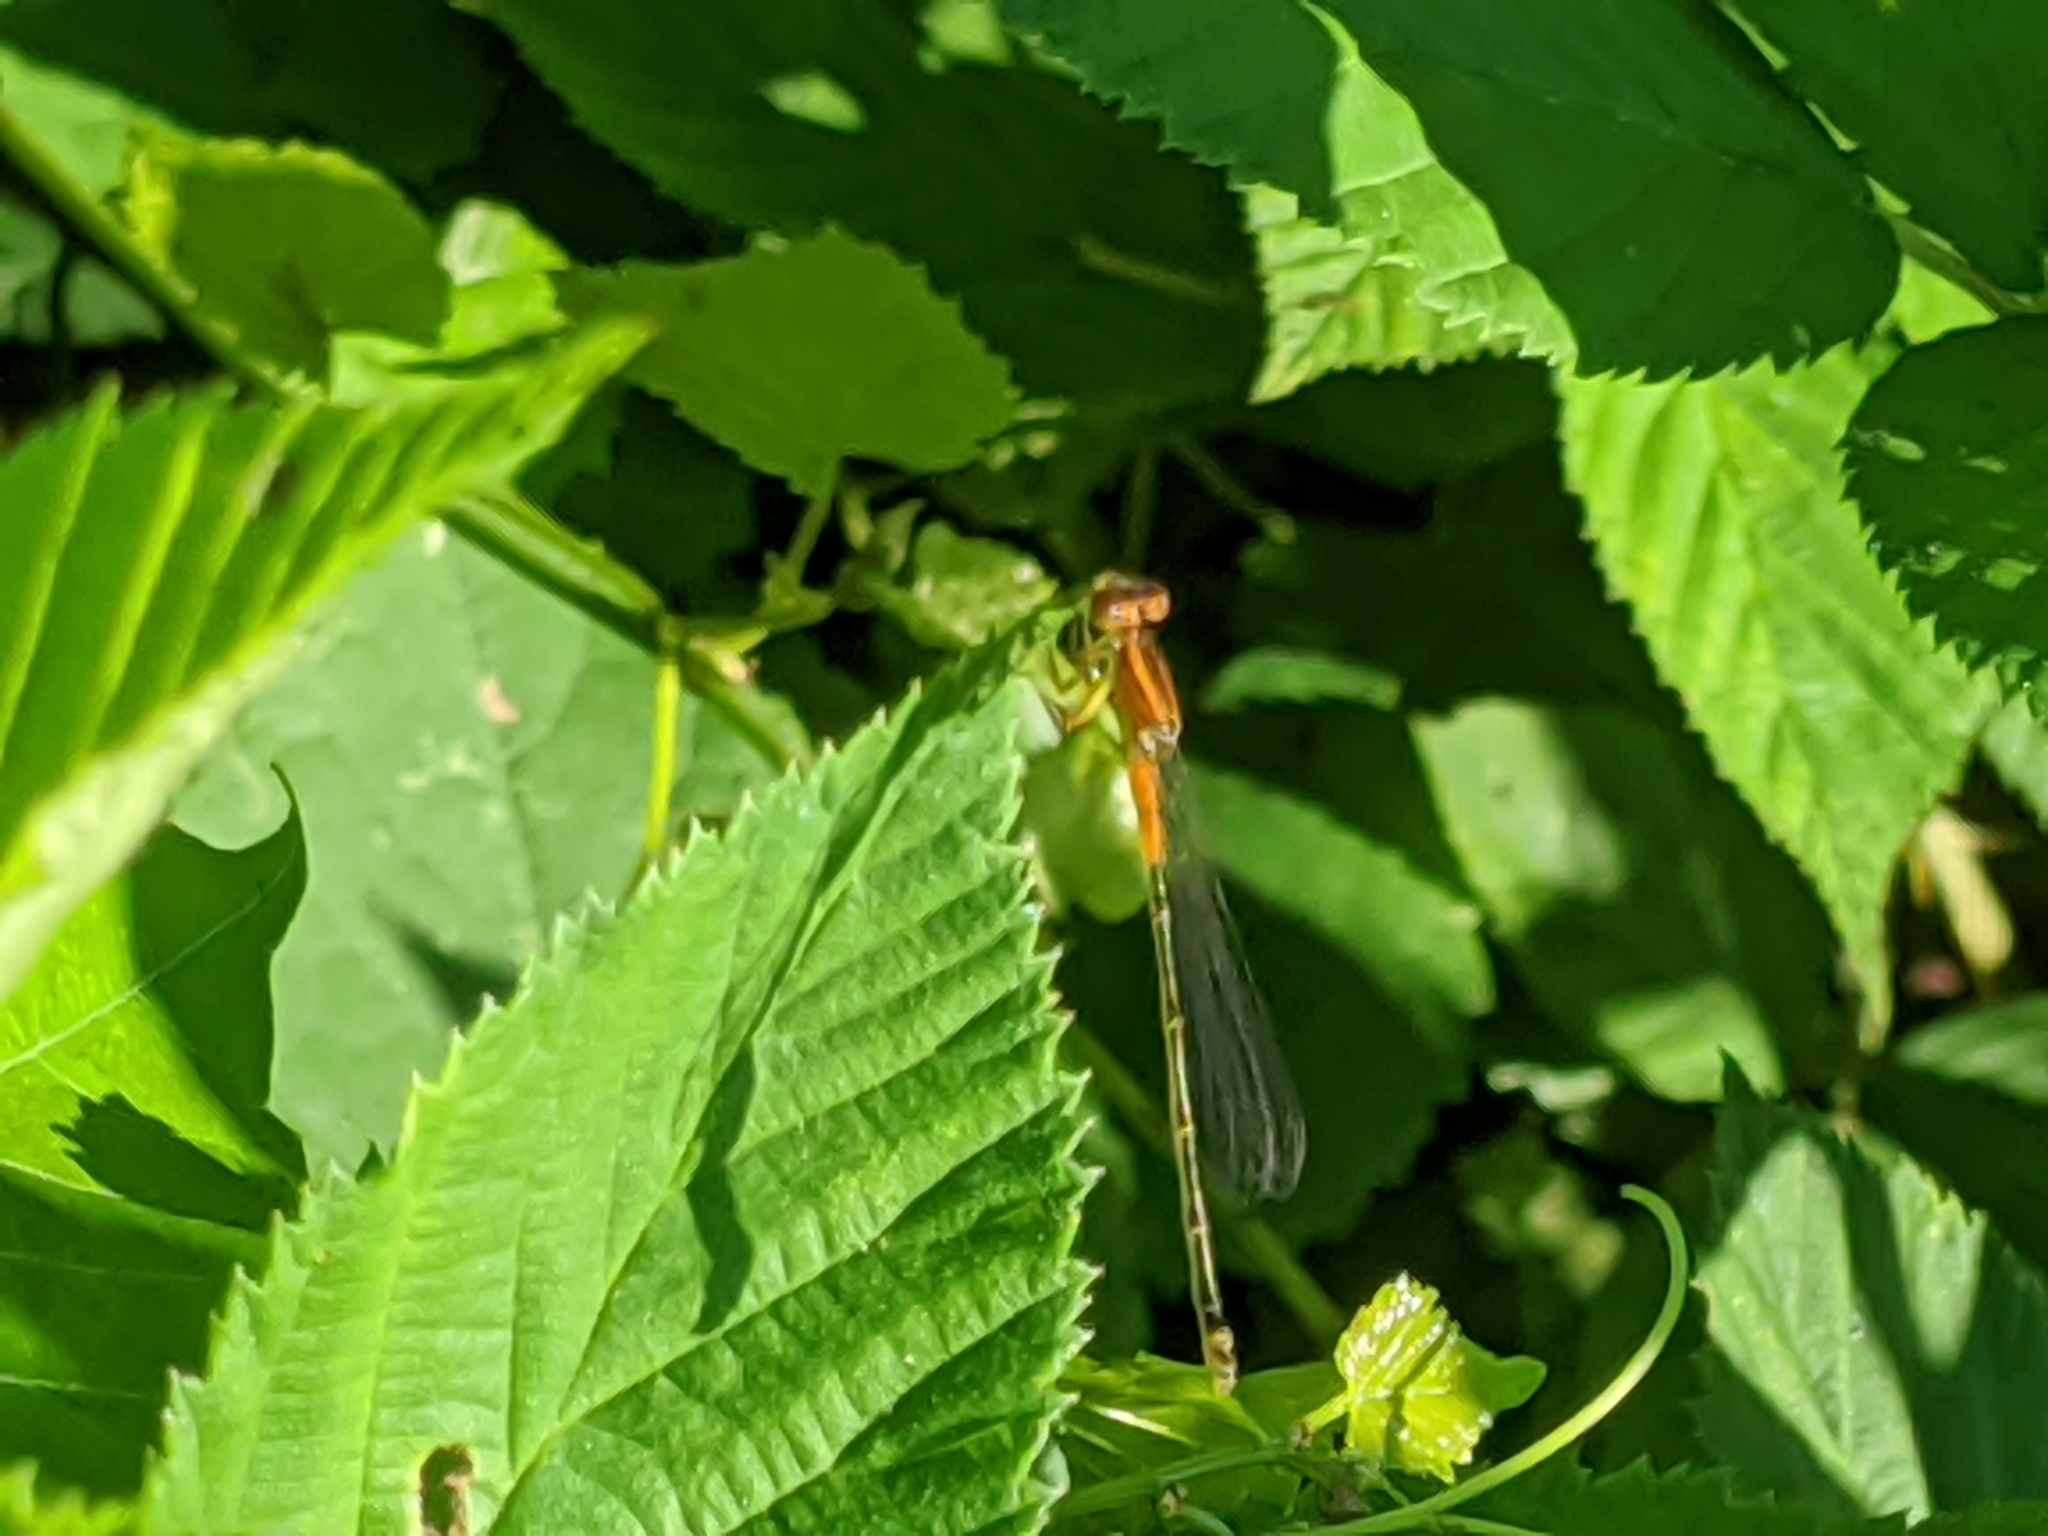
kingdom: Animalia
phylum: Arthropoda
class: Insecta
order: Odonata
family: Coenagrionidae
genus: Ischnura
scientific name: Ischnura verticalis
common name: Eastern forktail
